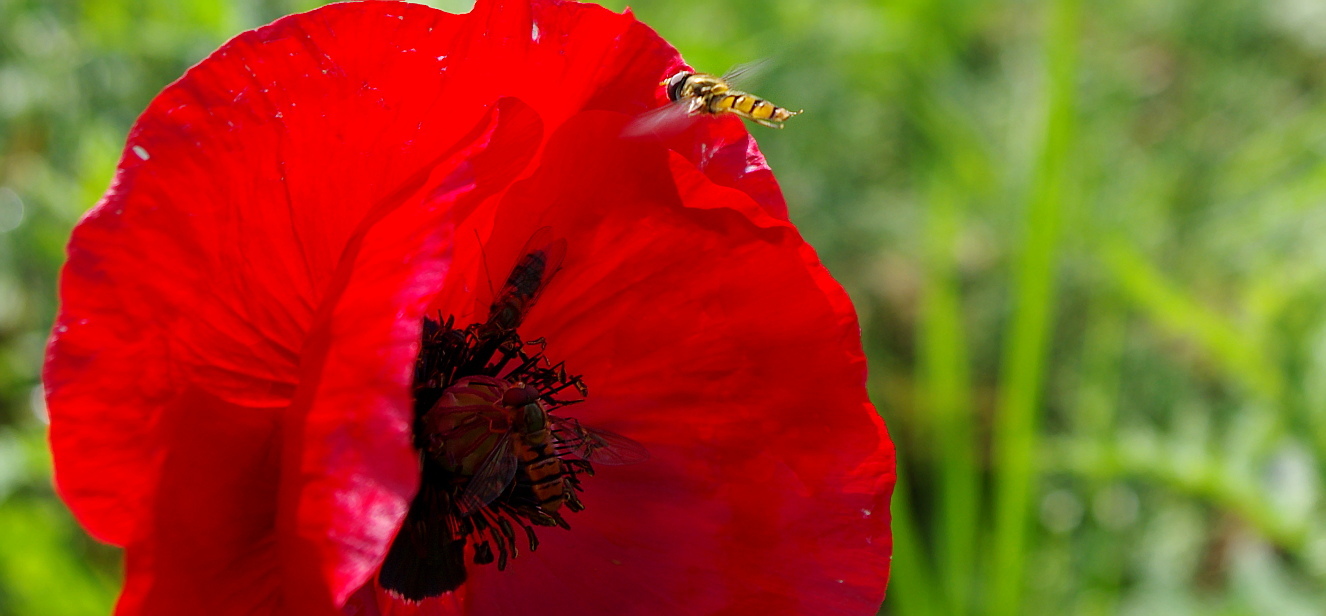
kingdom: Animalia
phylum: Arthropoda
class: Insecta
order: Diptera
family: Syrphidae
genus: Episyrphus
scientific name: Episyrphus balteatus
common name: Marmalade hoverfly
